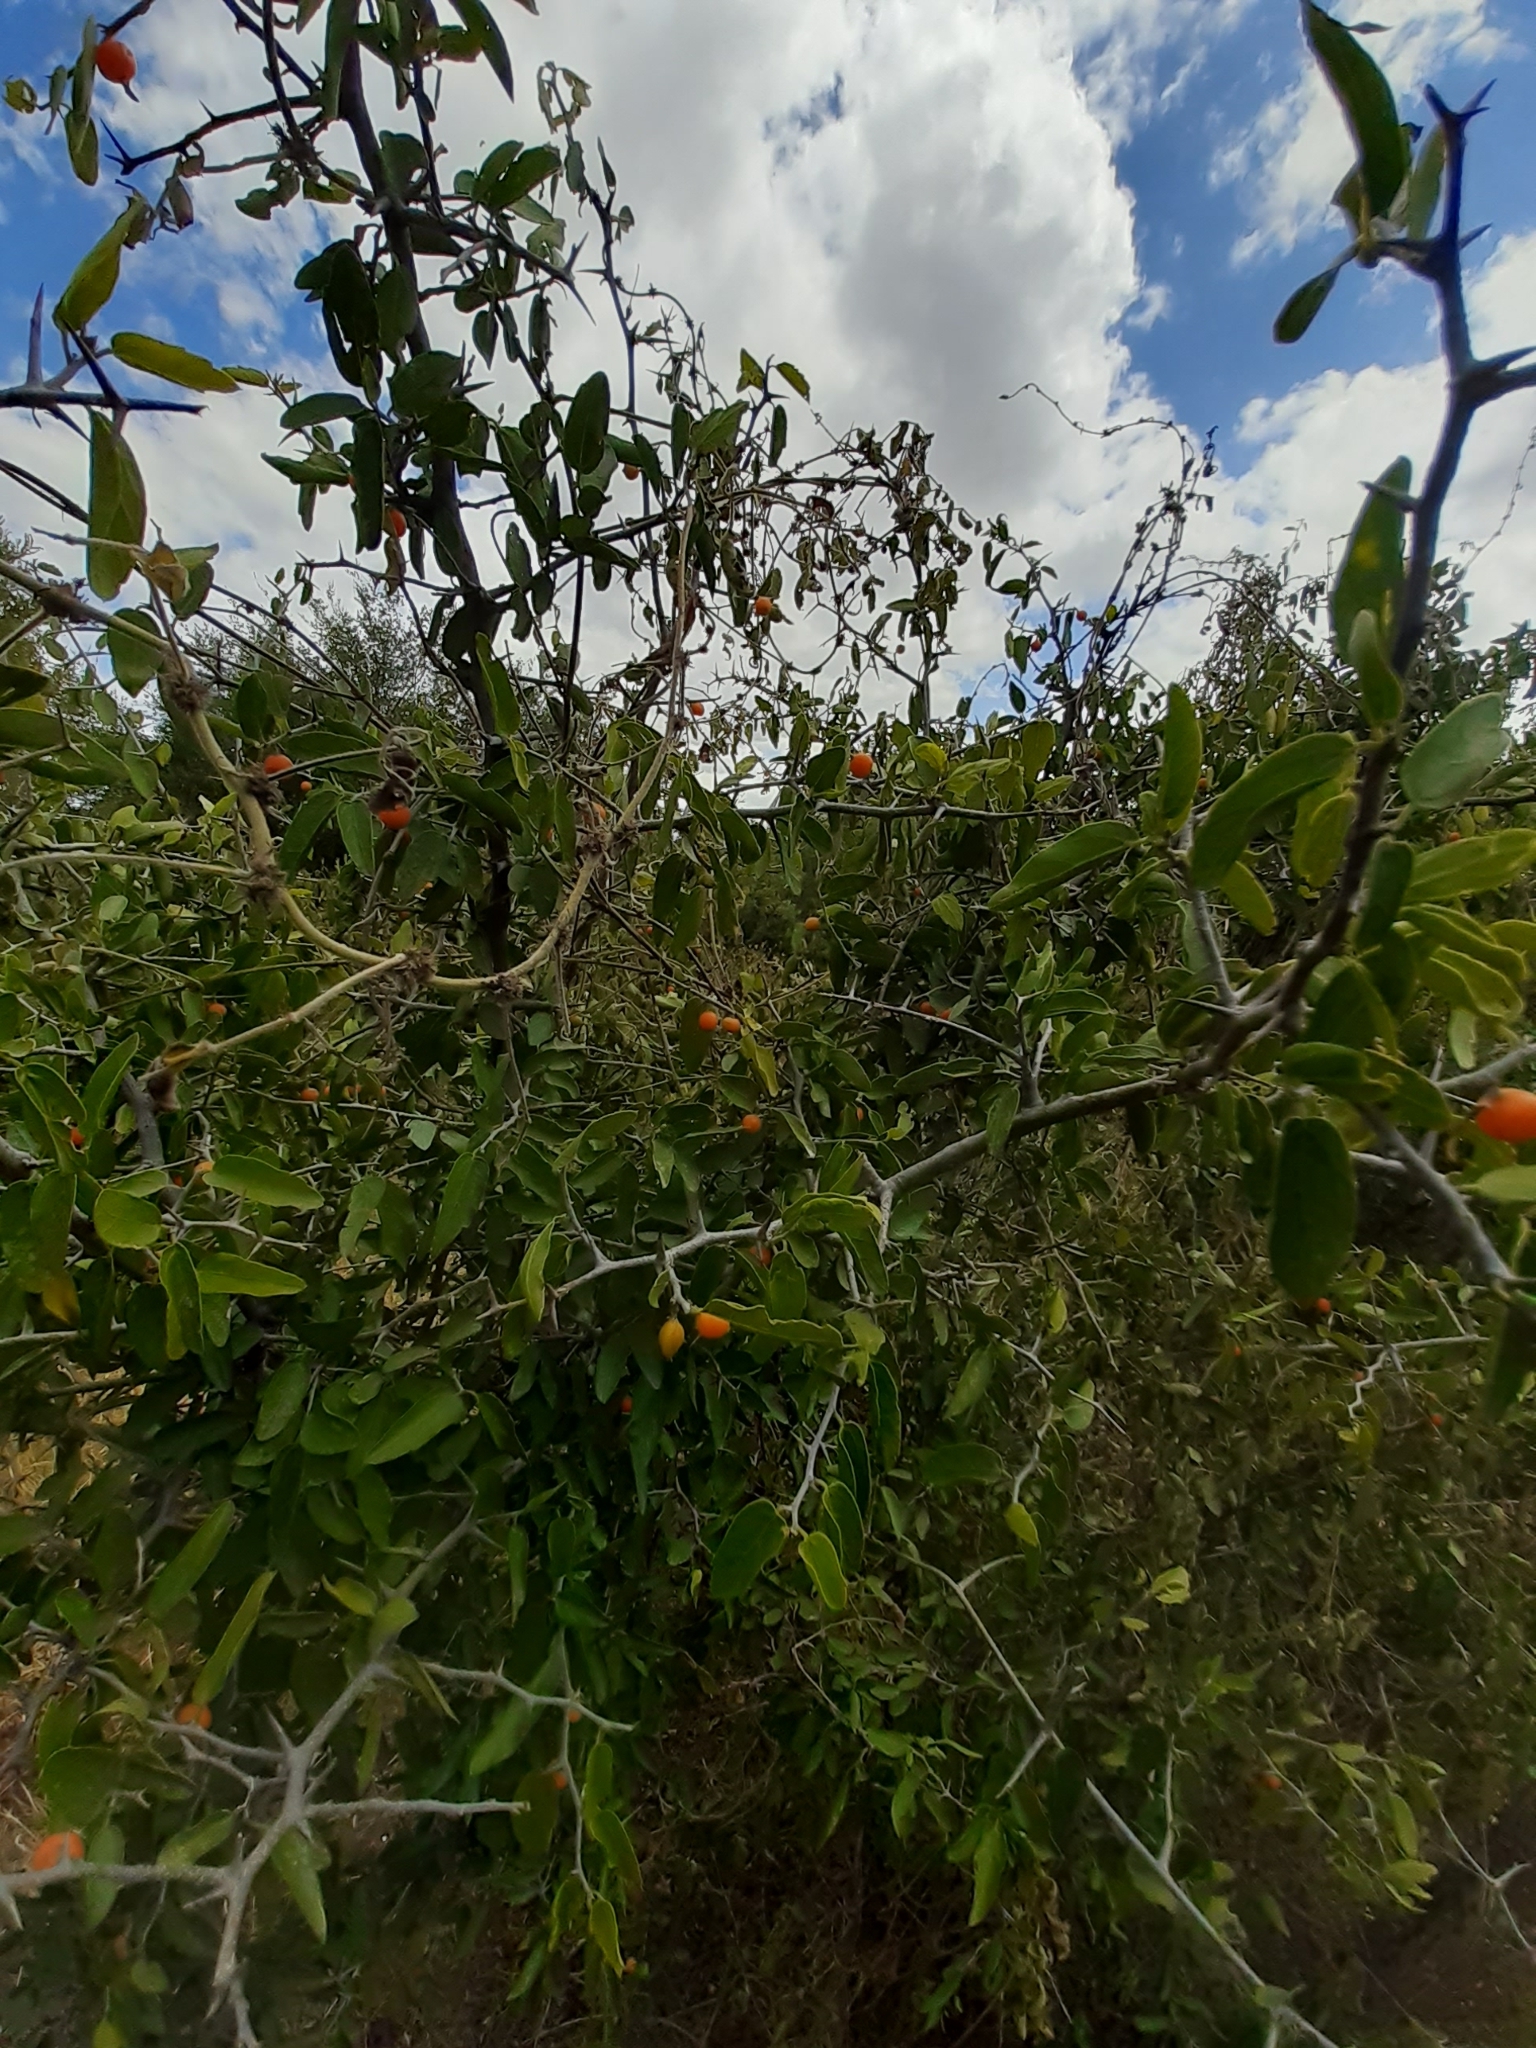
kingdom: Plantae
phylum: Tracheophyta
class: Magnoliopsida
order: Rosales
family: Cannabaceae
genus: Celtis
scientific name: Celtis pallida
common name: Desert hackberry
